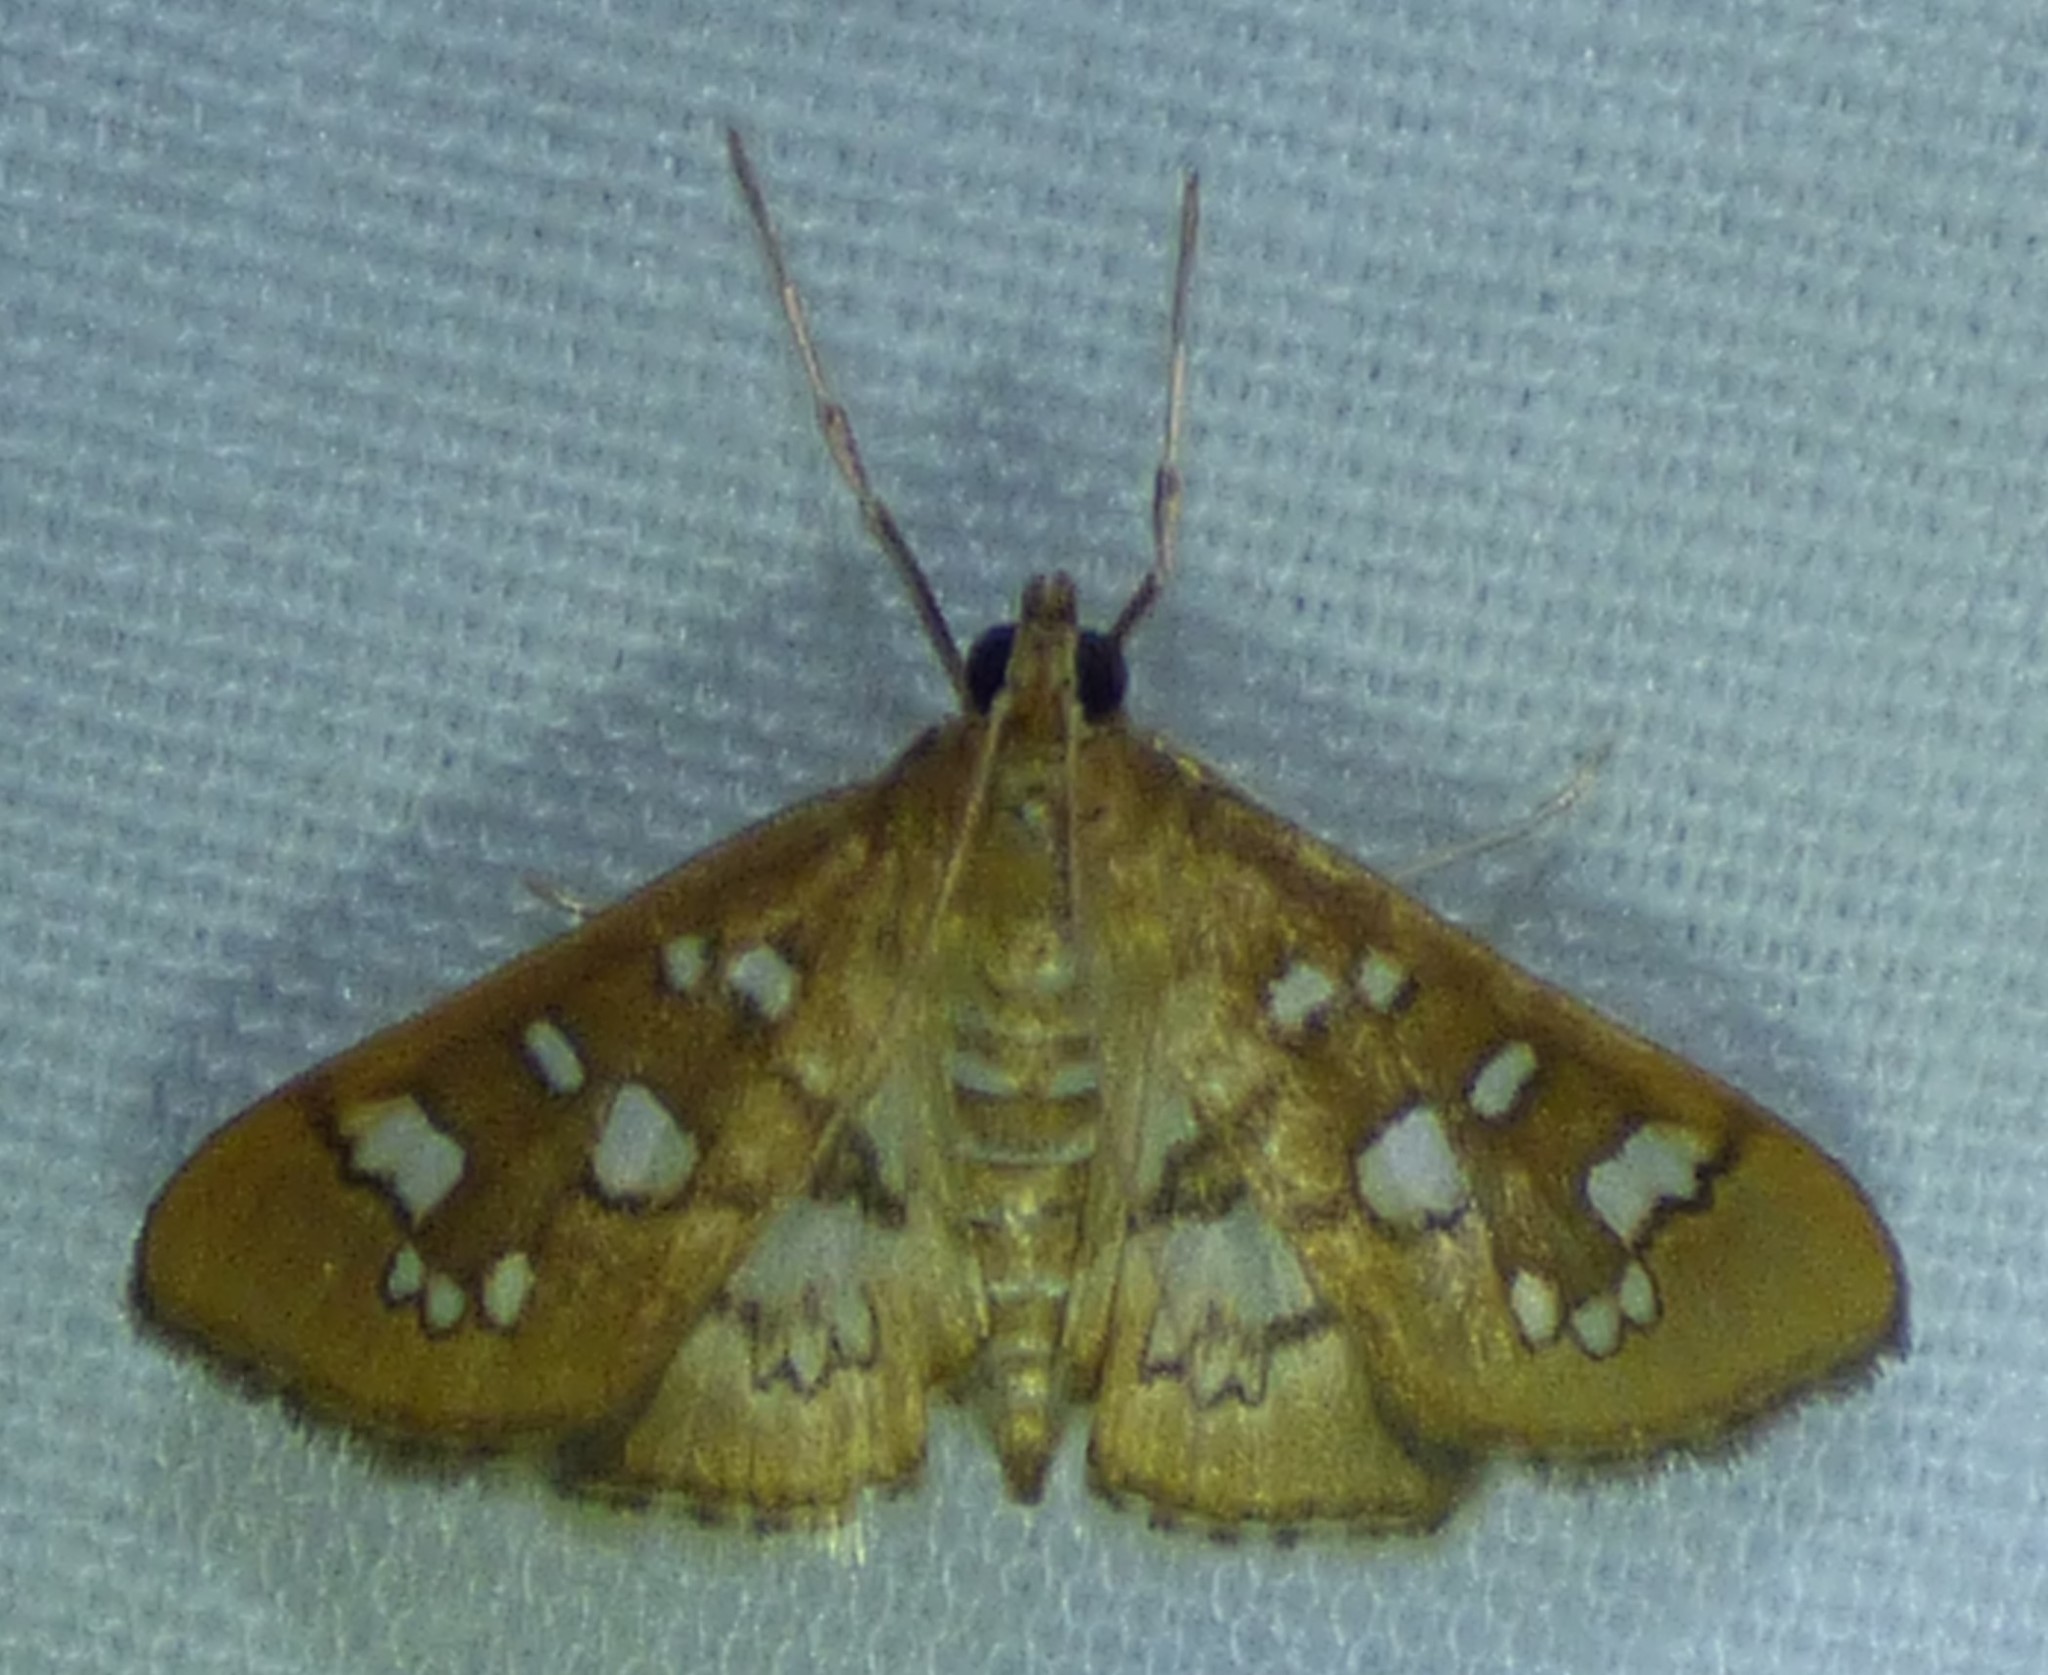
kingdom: Animalia
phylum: Arthropoda
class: Insecta
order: Lepidoptera
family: Crambidae
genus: Samea
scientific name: Samea baccatalis
